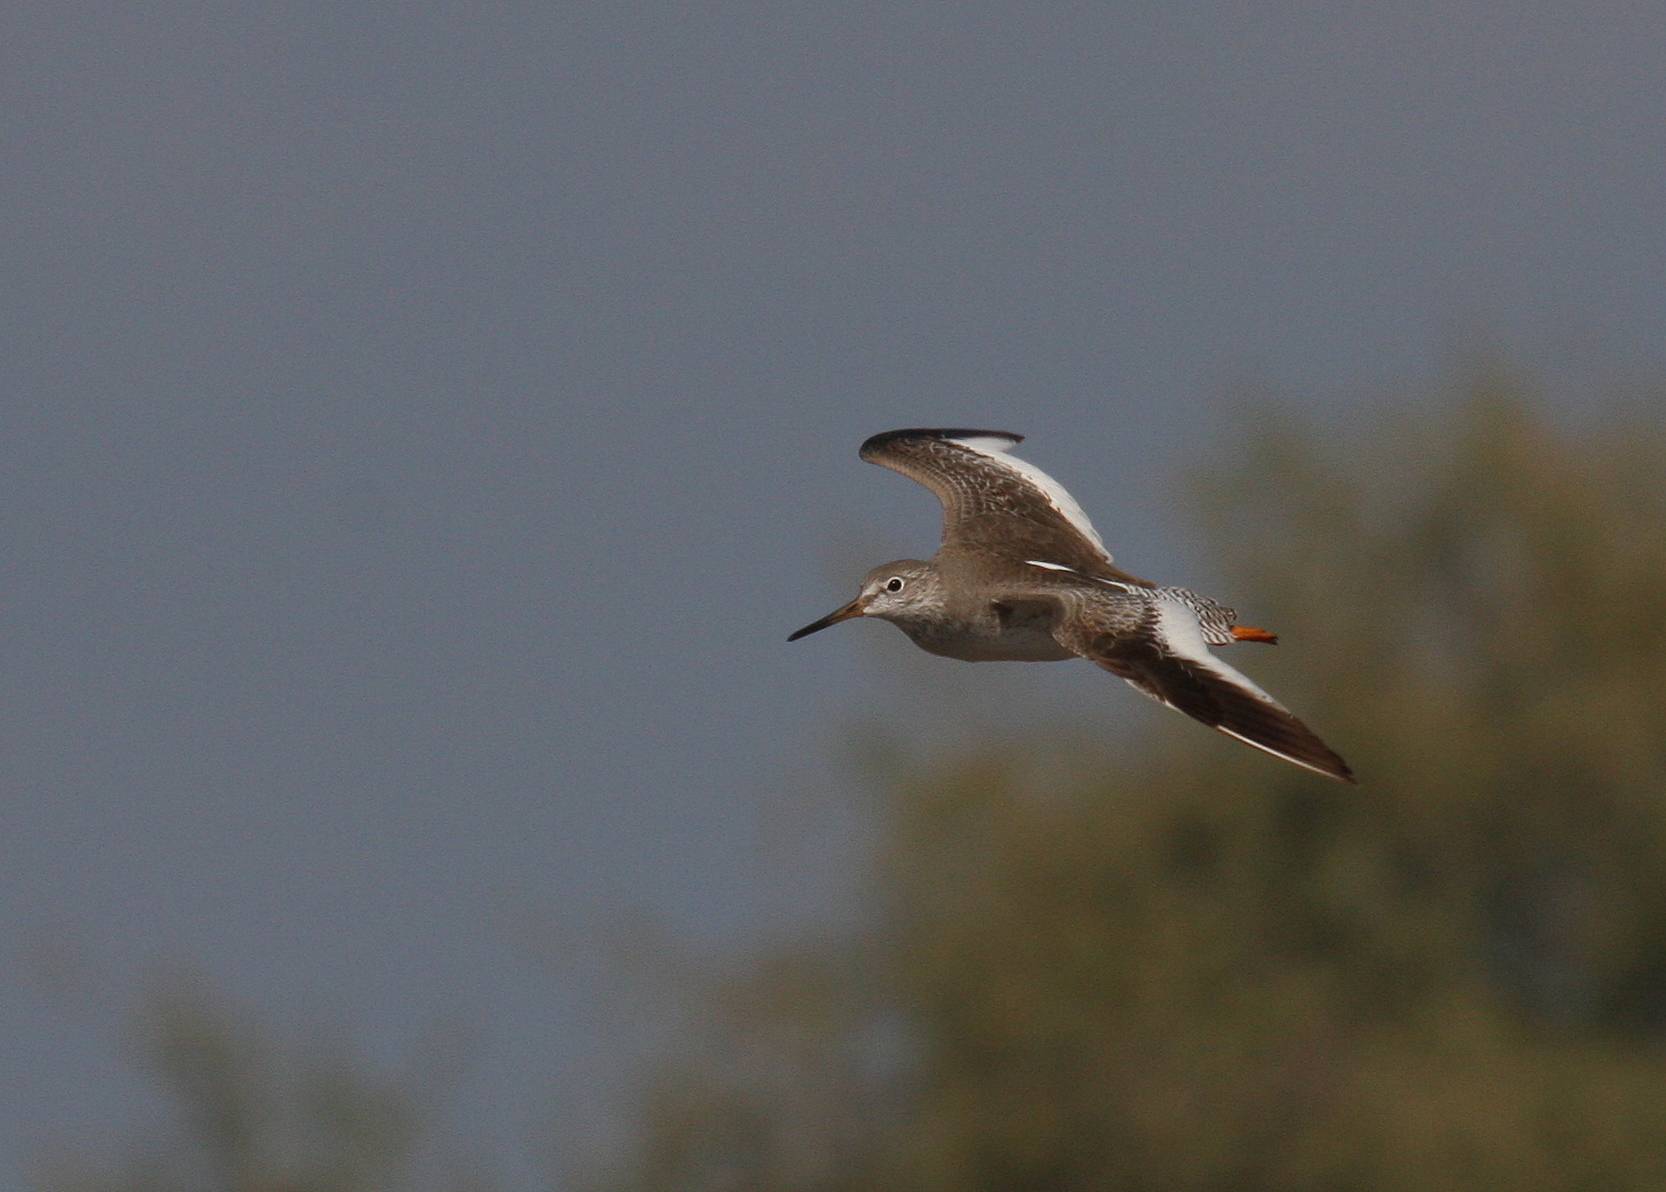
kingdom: Animalia
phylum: Chordata
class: Aves
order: Charadriiformes
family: Scolopacidae
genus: Tringa
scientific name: Tringa totanus
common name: Common redshank
